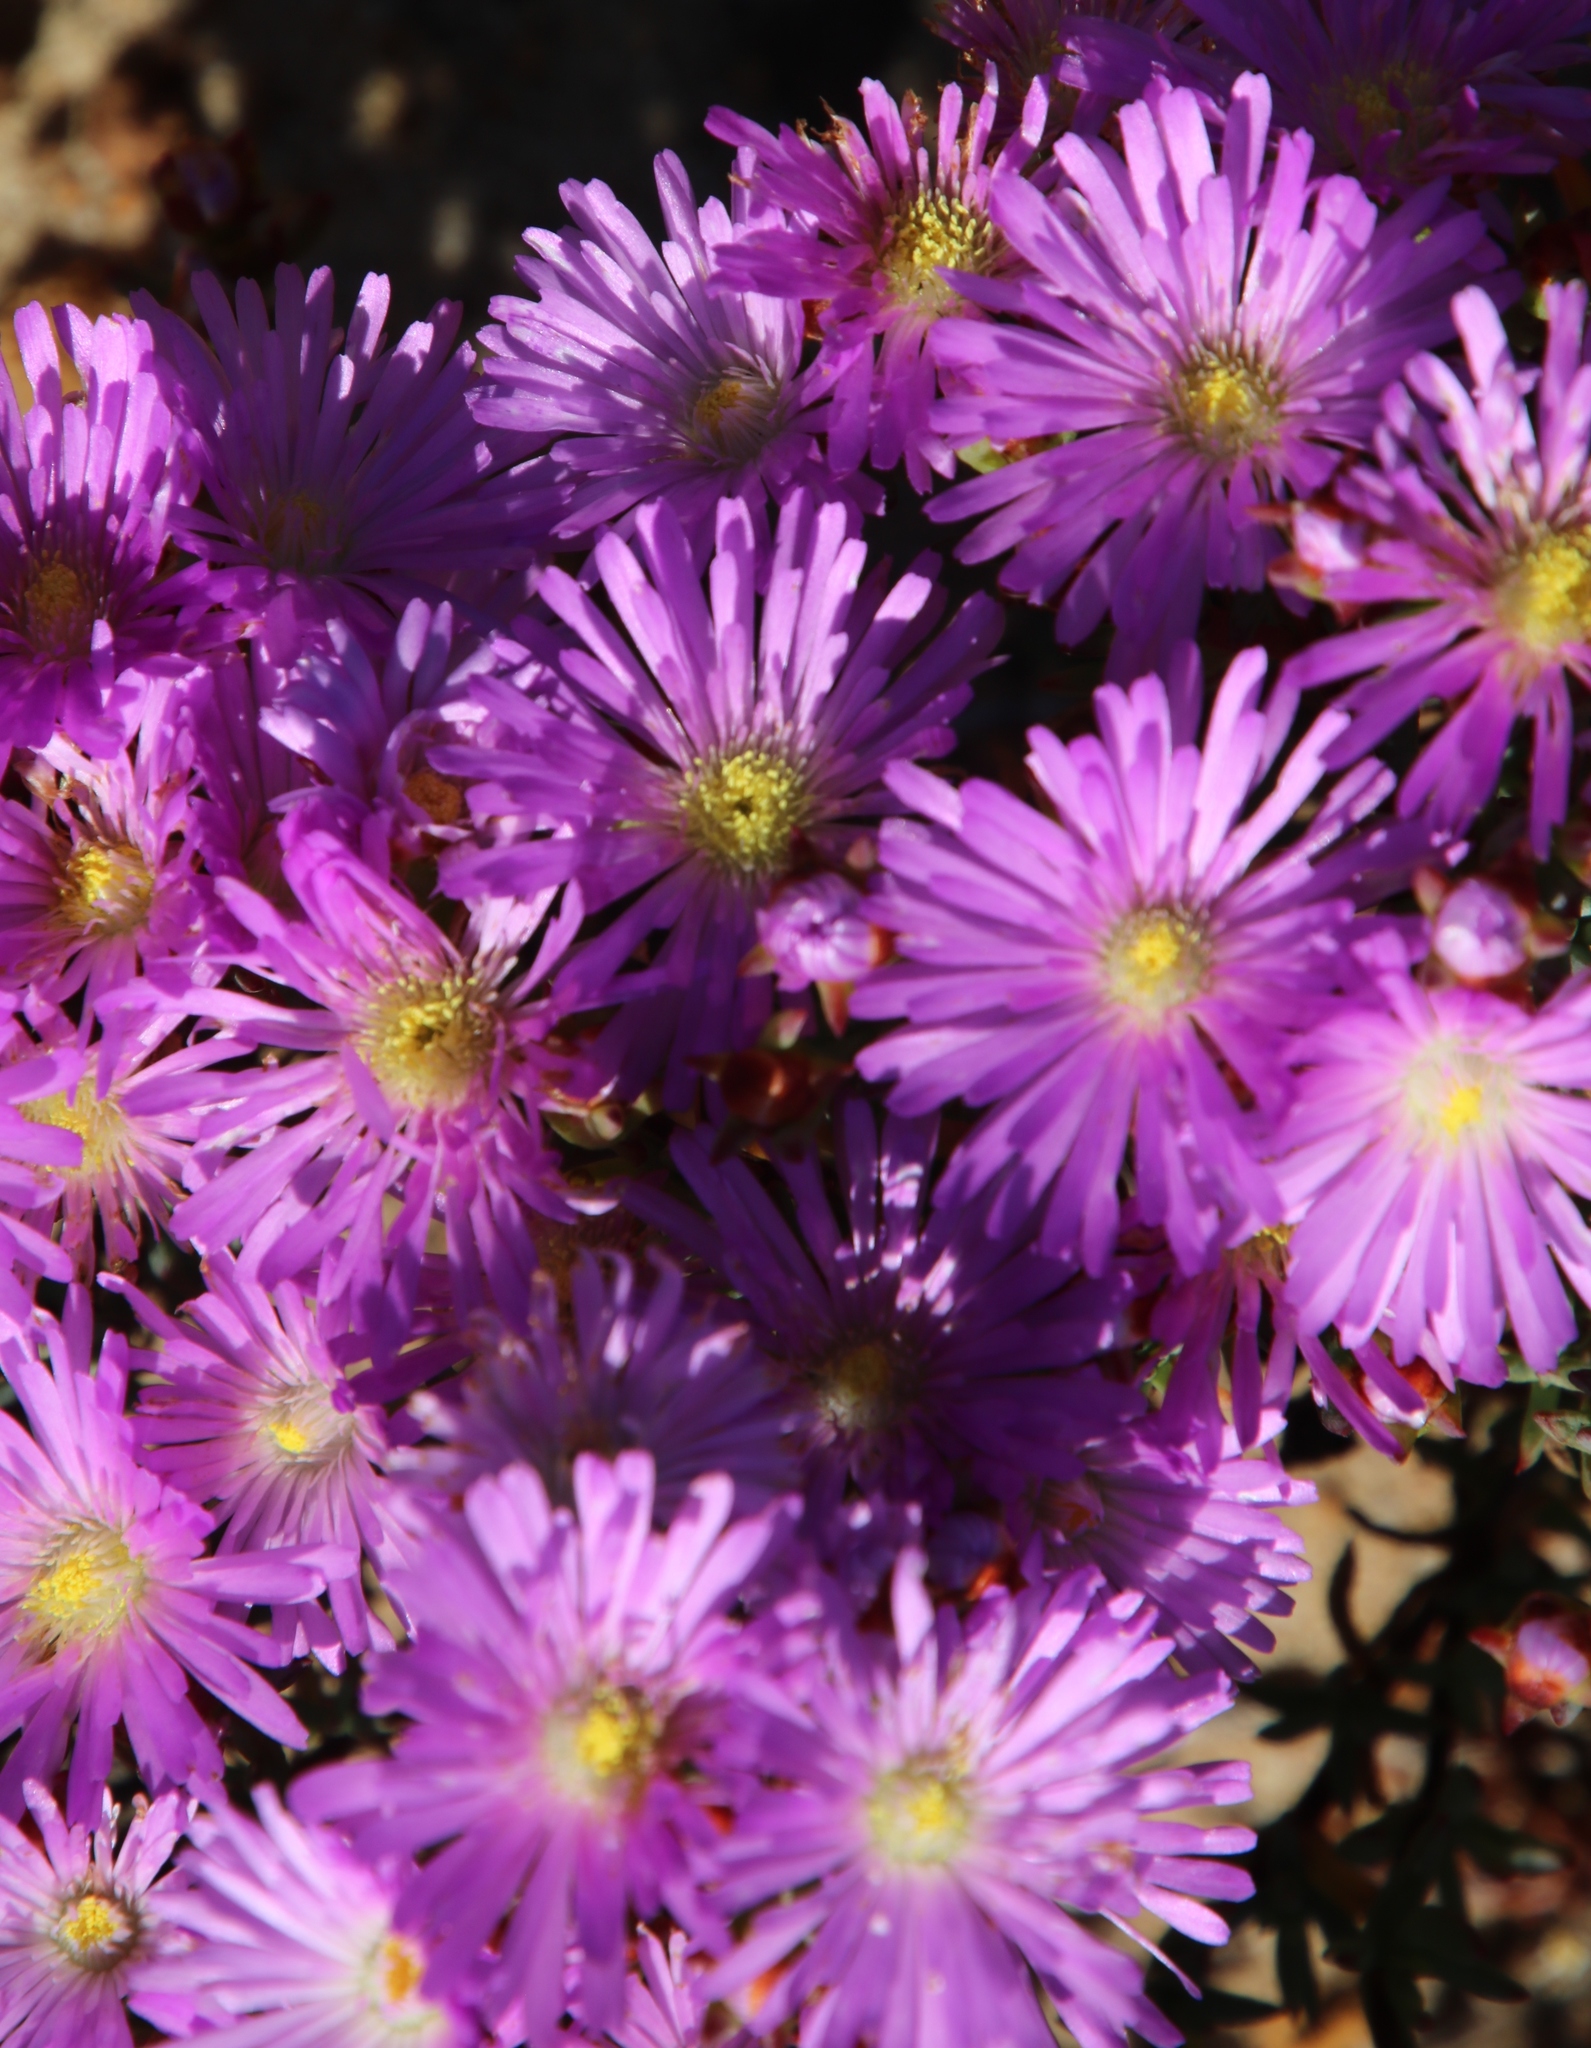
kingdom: Plantae
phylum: Tracheophyta
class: Magnoliopsida
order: Caryophyllales
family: Aizoaceae
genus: Lampranthus
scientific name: Lampranthus glomeratus
